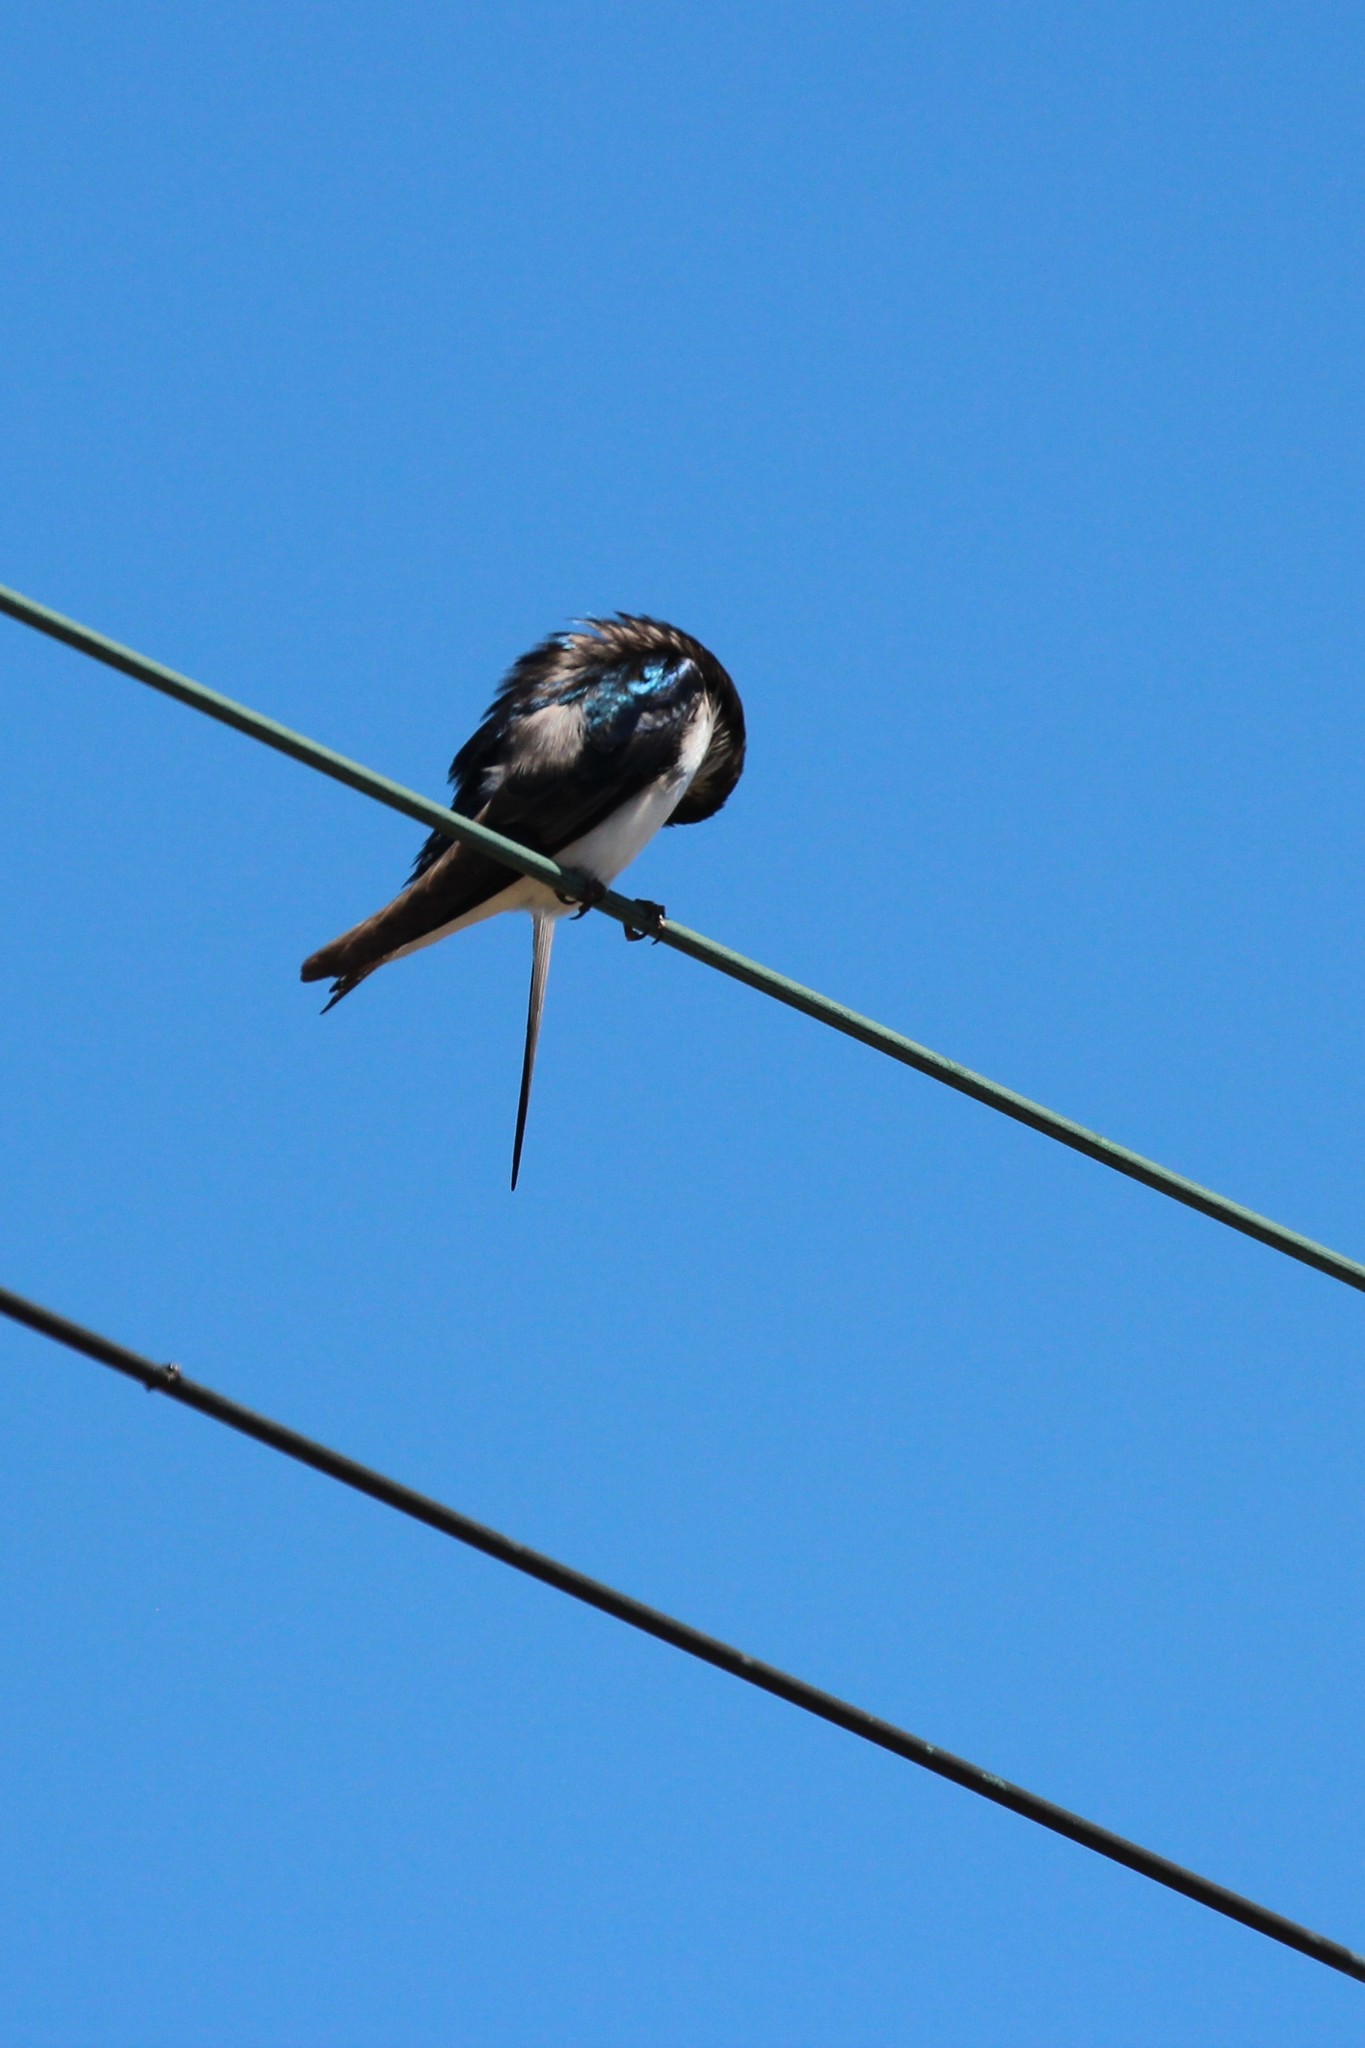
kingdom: Animalia
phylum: Chordata
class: Aves
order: Passeriformes
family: Hirundinidae
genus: Tachycineta
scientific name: Tachycineta bicolor
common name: Tree swallow
